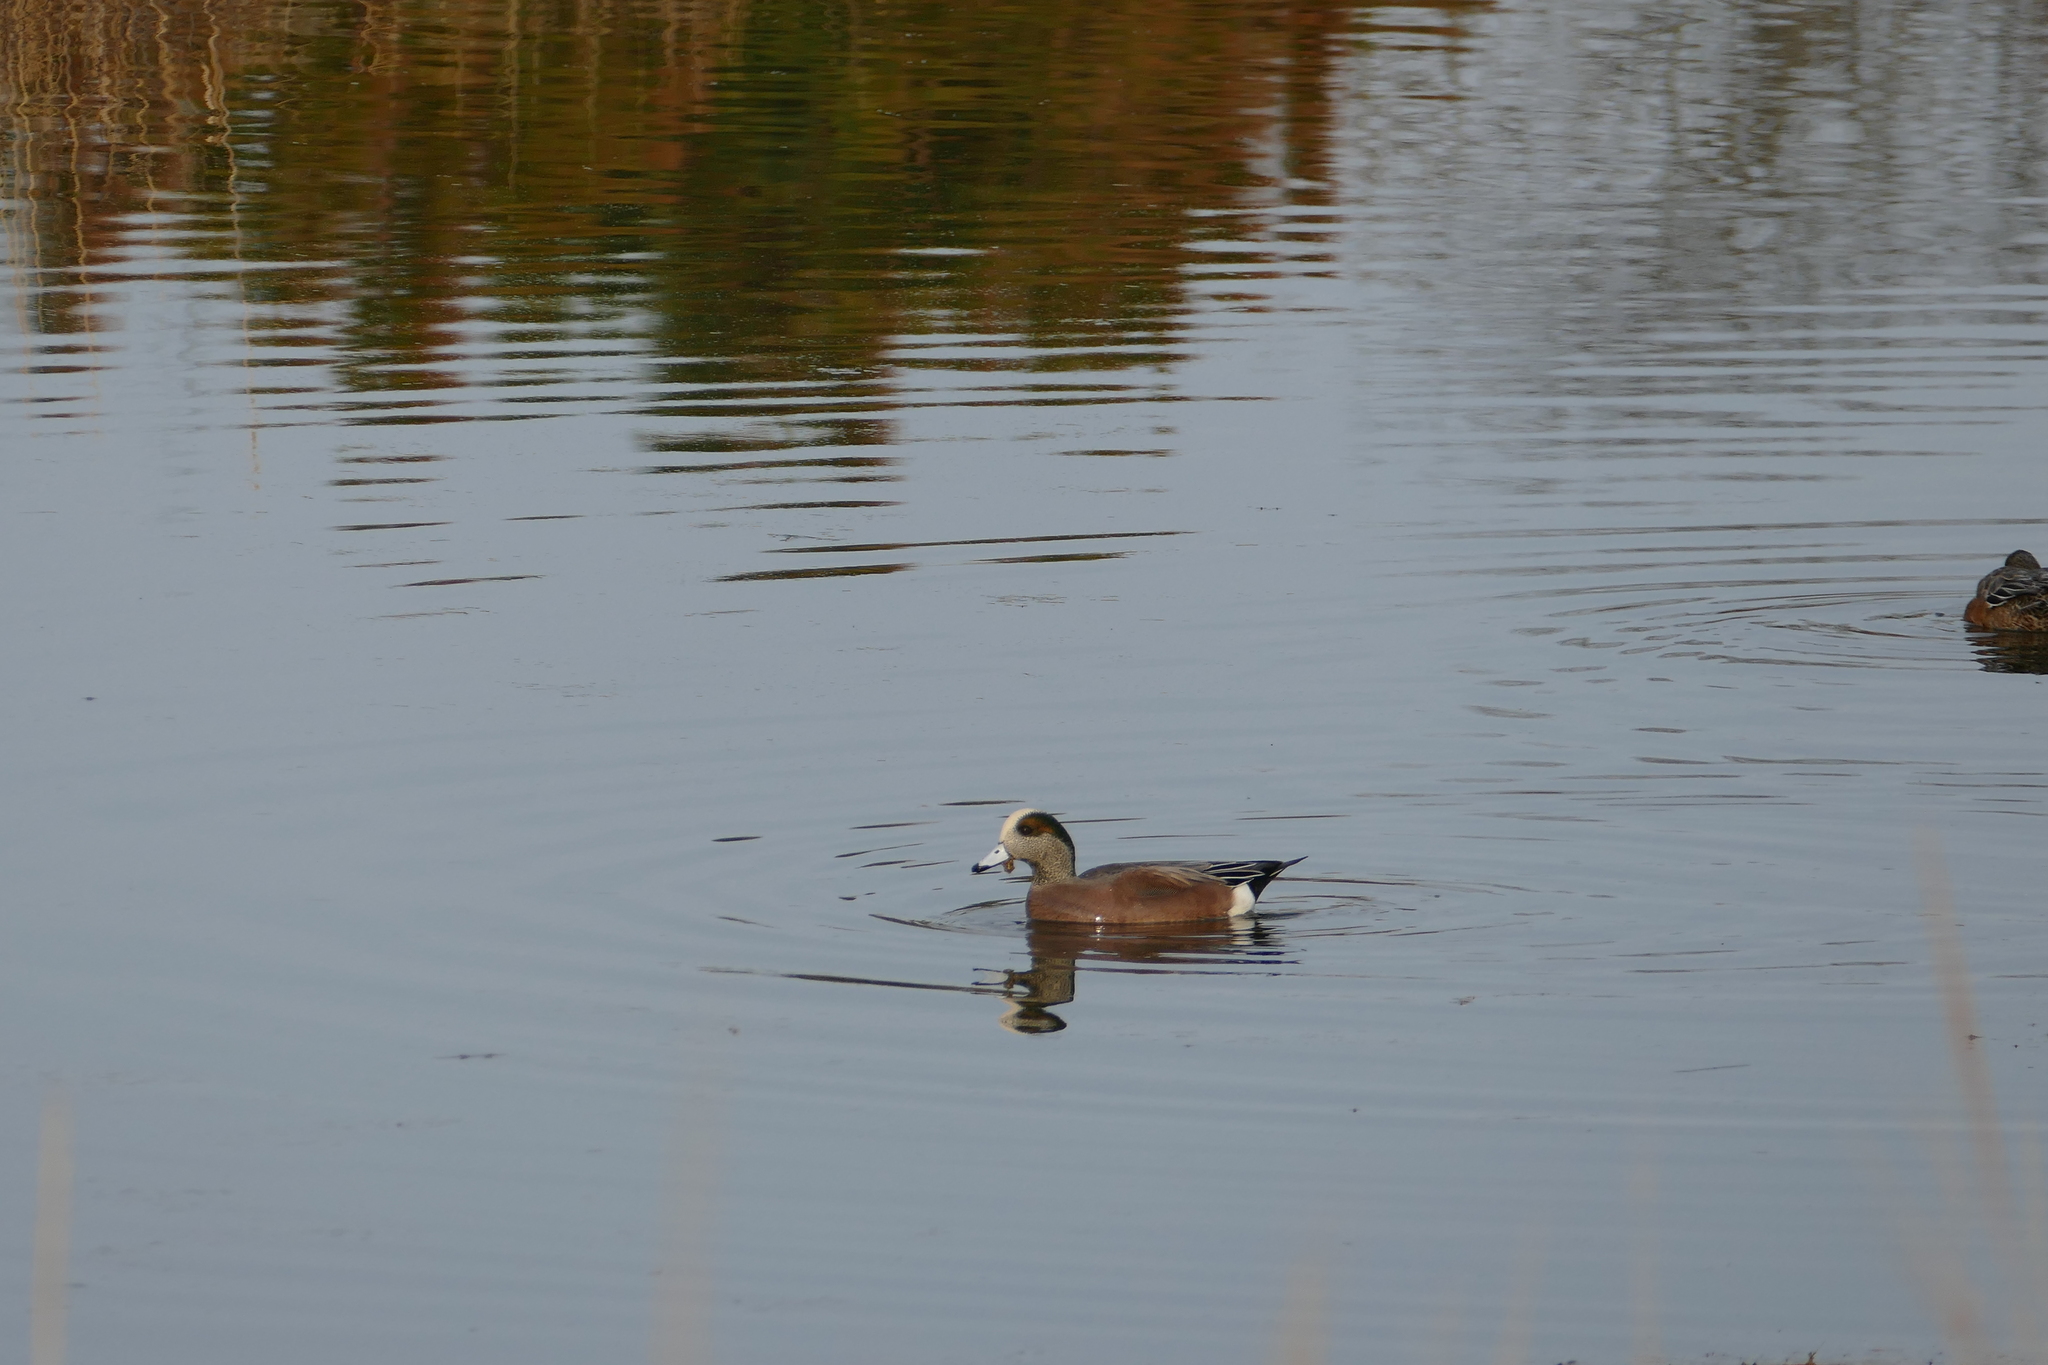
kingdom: Animalia
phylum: Chordata
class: Aves
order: Anseriformes
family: Anatidae
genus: Mareca
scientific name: Mareca americana
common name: American wigeon
